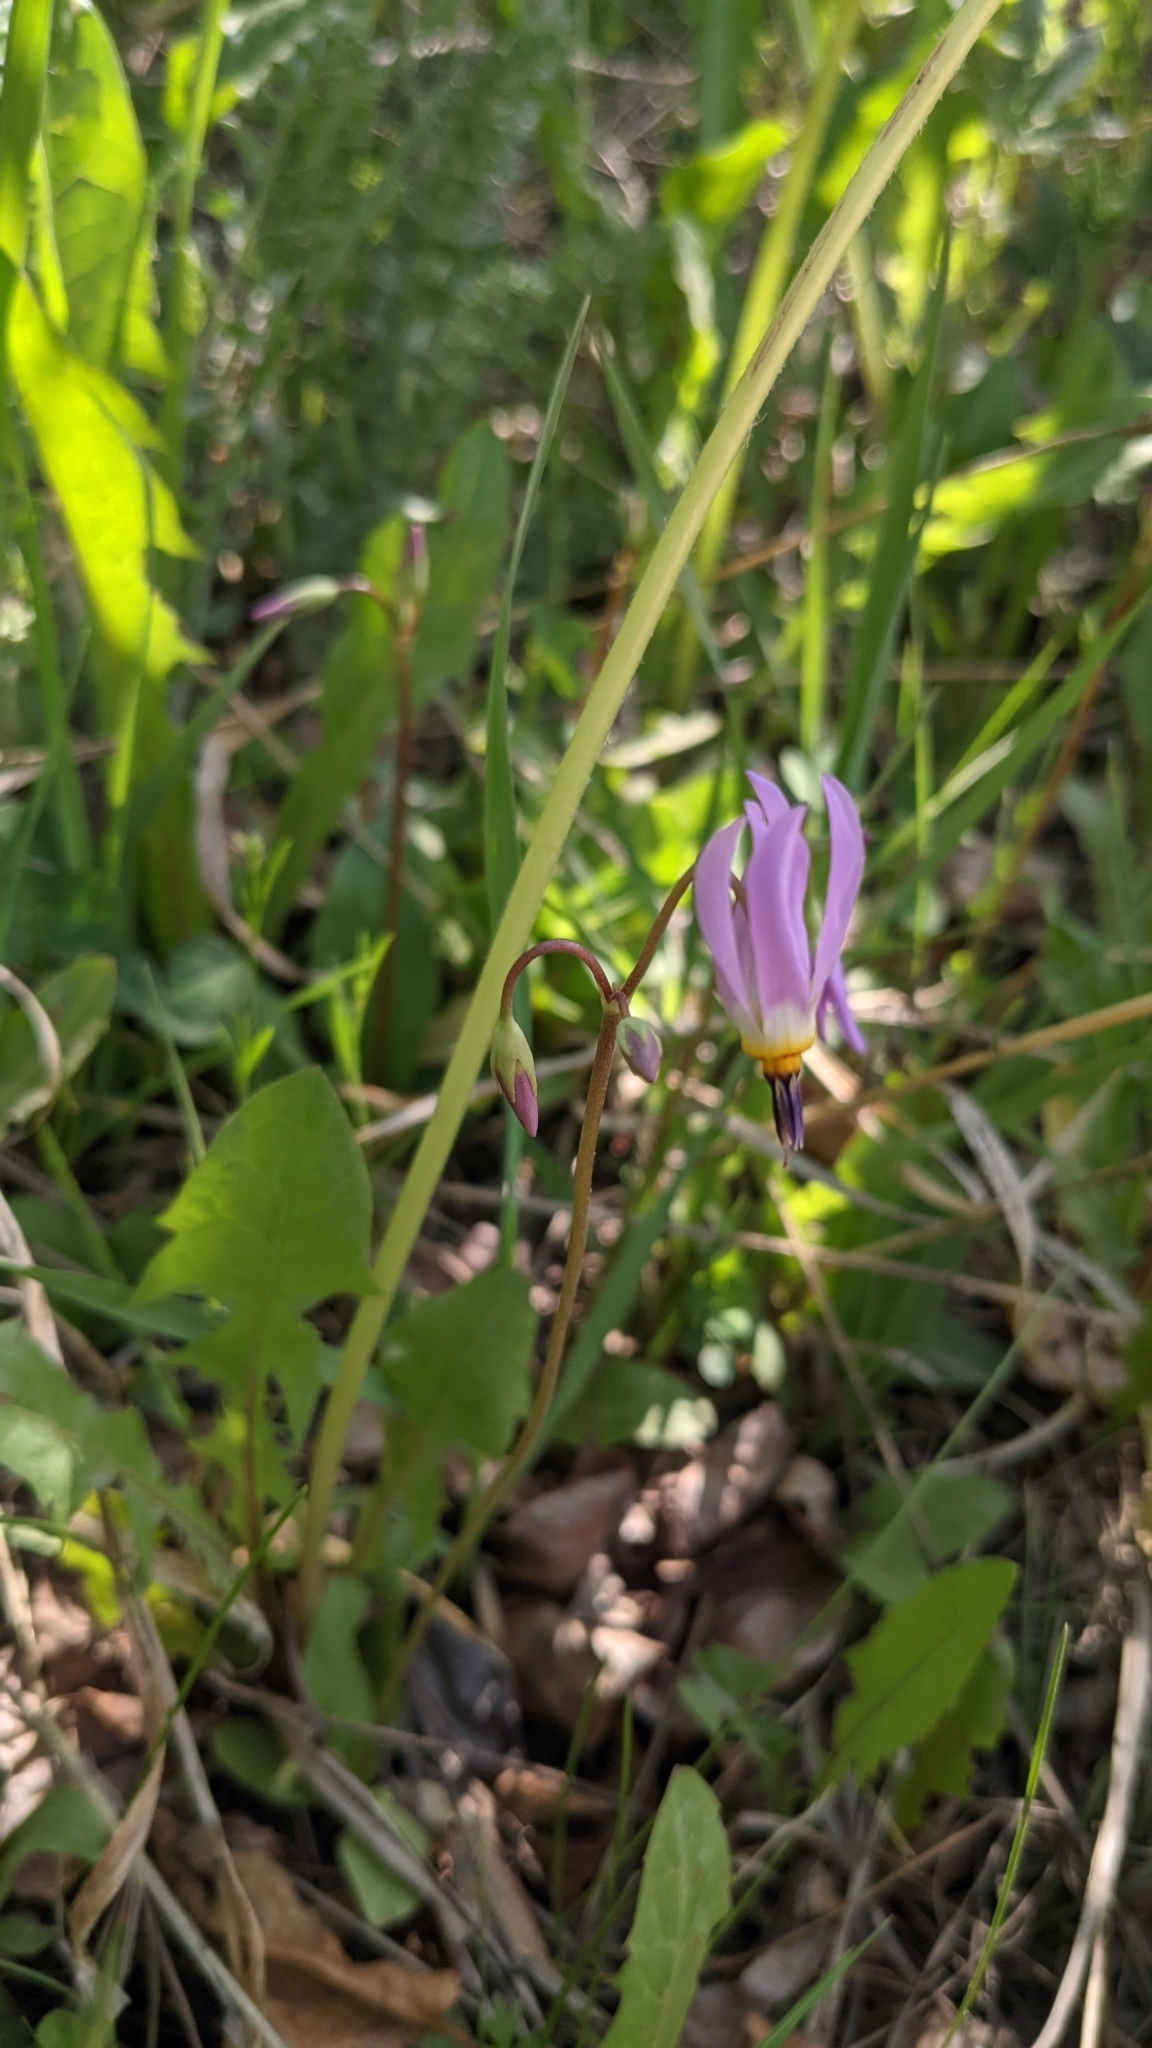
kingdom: Plantae
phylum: Tracheophyta
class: Magnoliopsida
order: Ericales
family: Primulaceae
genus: Dodecatheon
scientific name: Dodecatheon pulchellum
